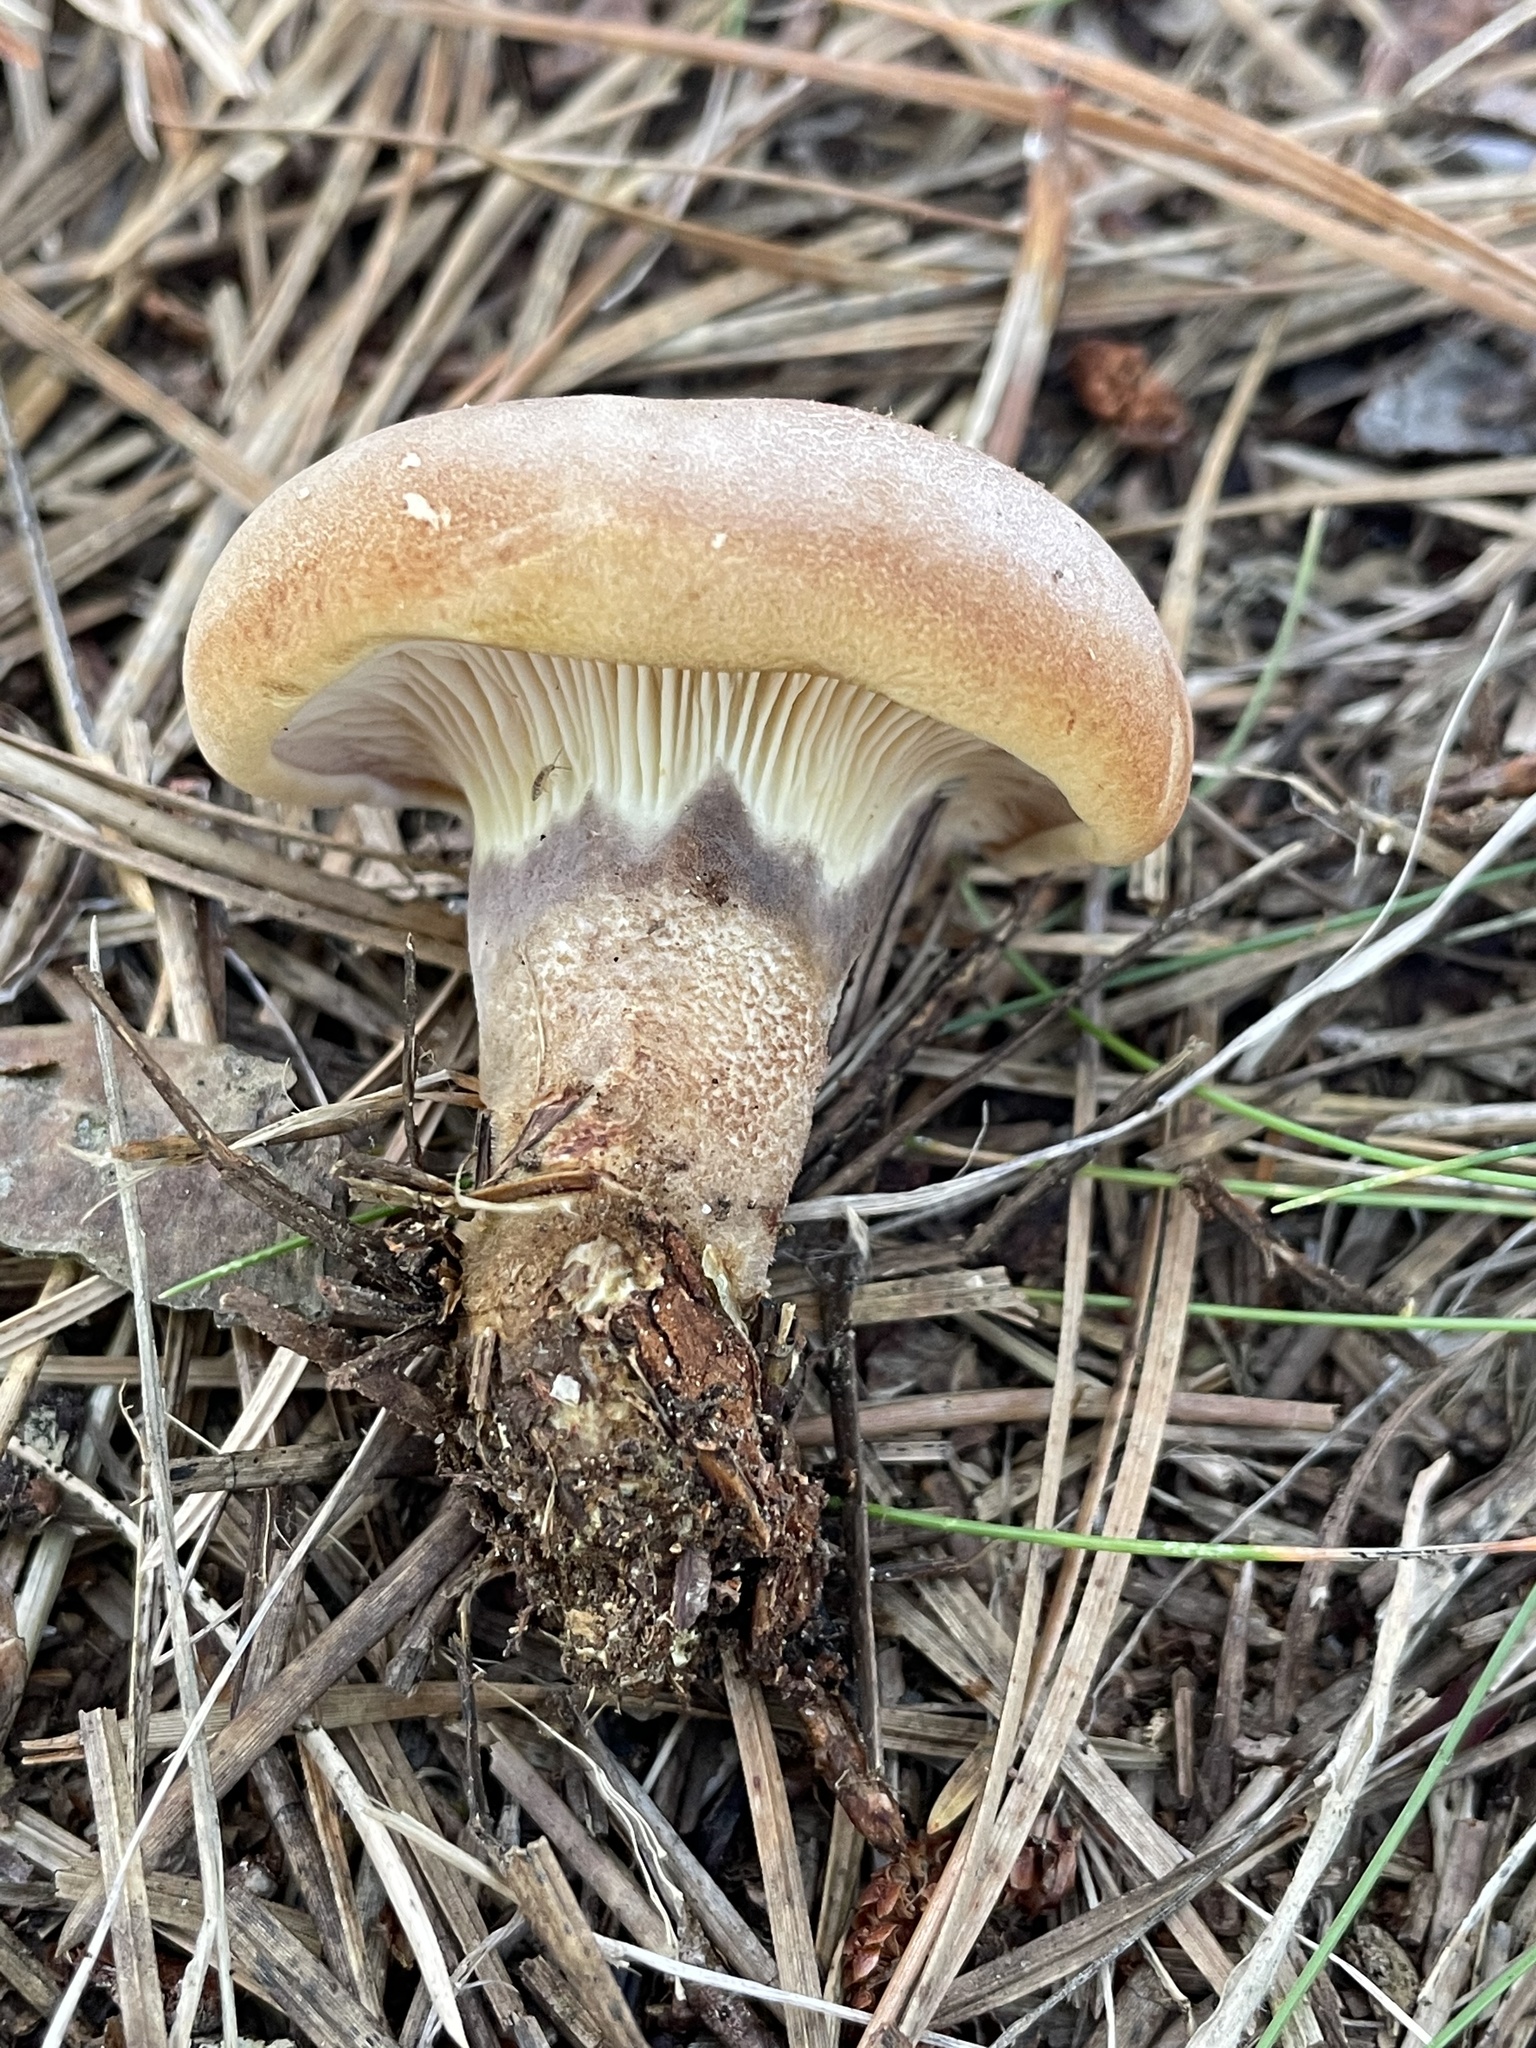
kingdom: Fungi
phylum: Basidiomycota
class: Agaricomycetes
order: Boletales
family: Tapinellaceae
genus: Tapinella
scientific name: Tapinella atrotomentosa
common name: Velvet rollrim
